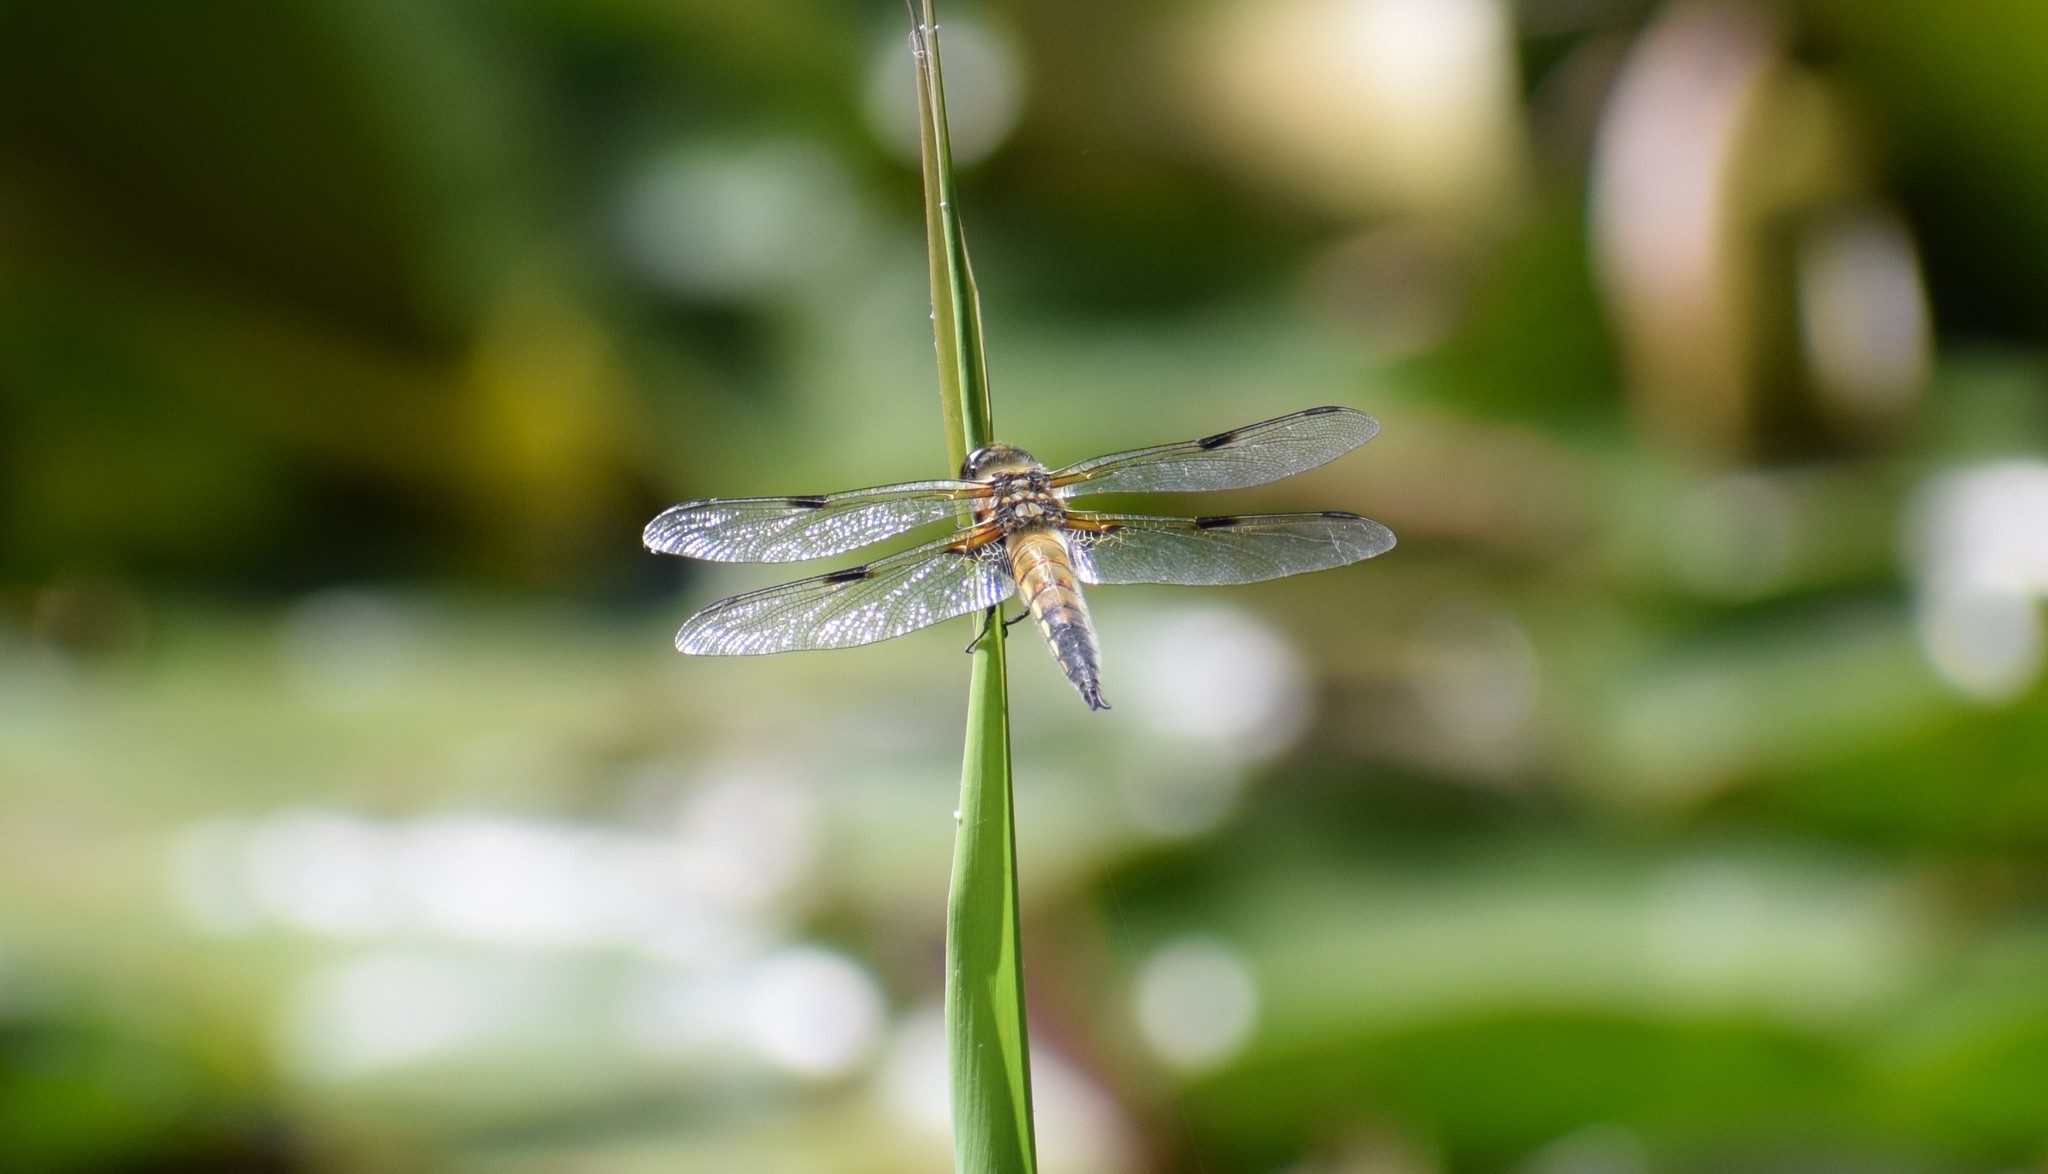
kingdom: Animalia
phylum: Arthropoda
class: Insecta
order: Odonata
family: Libellulidae
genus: Libellula
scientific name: Libellula quadrimaculata
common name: Four-spotted chaser
